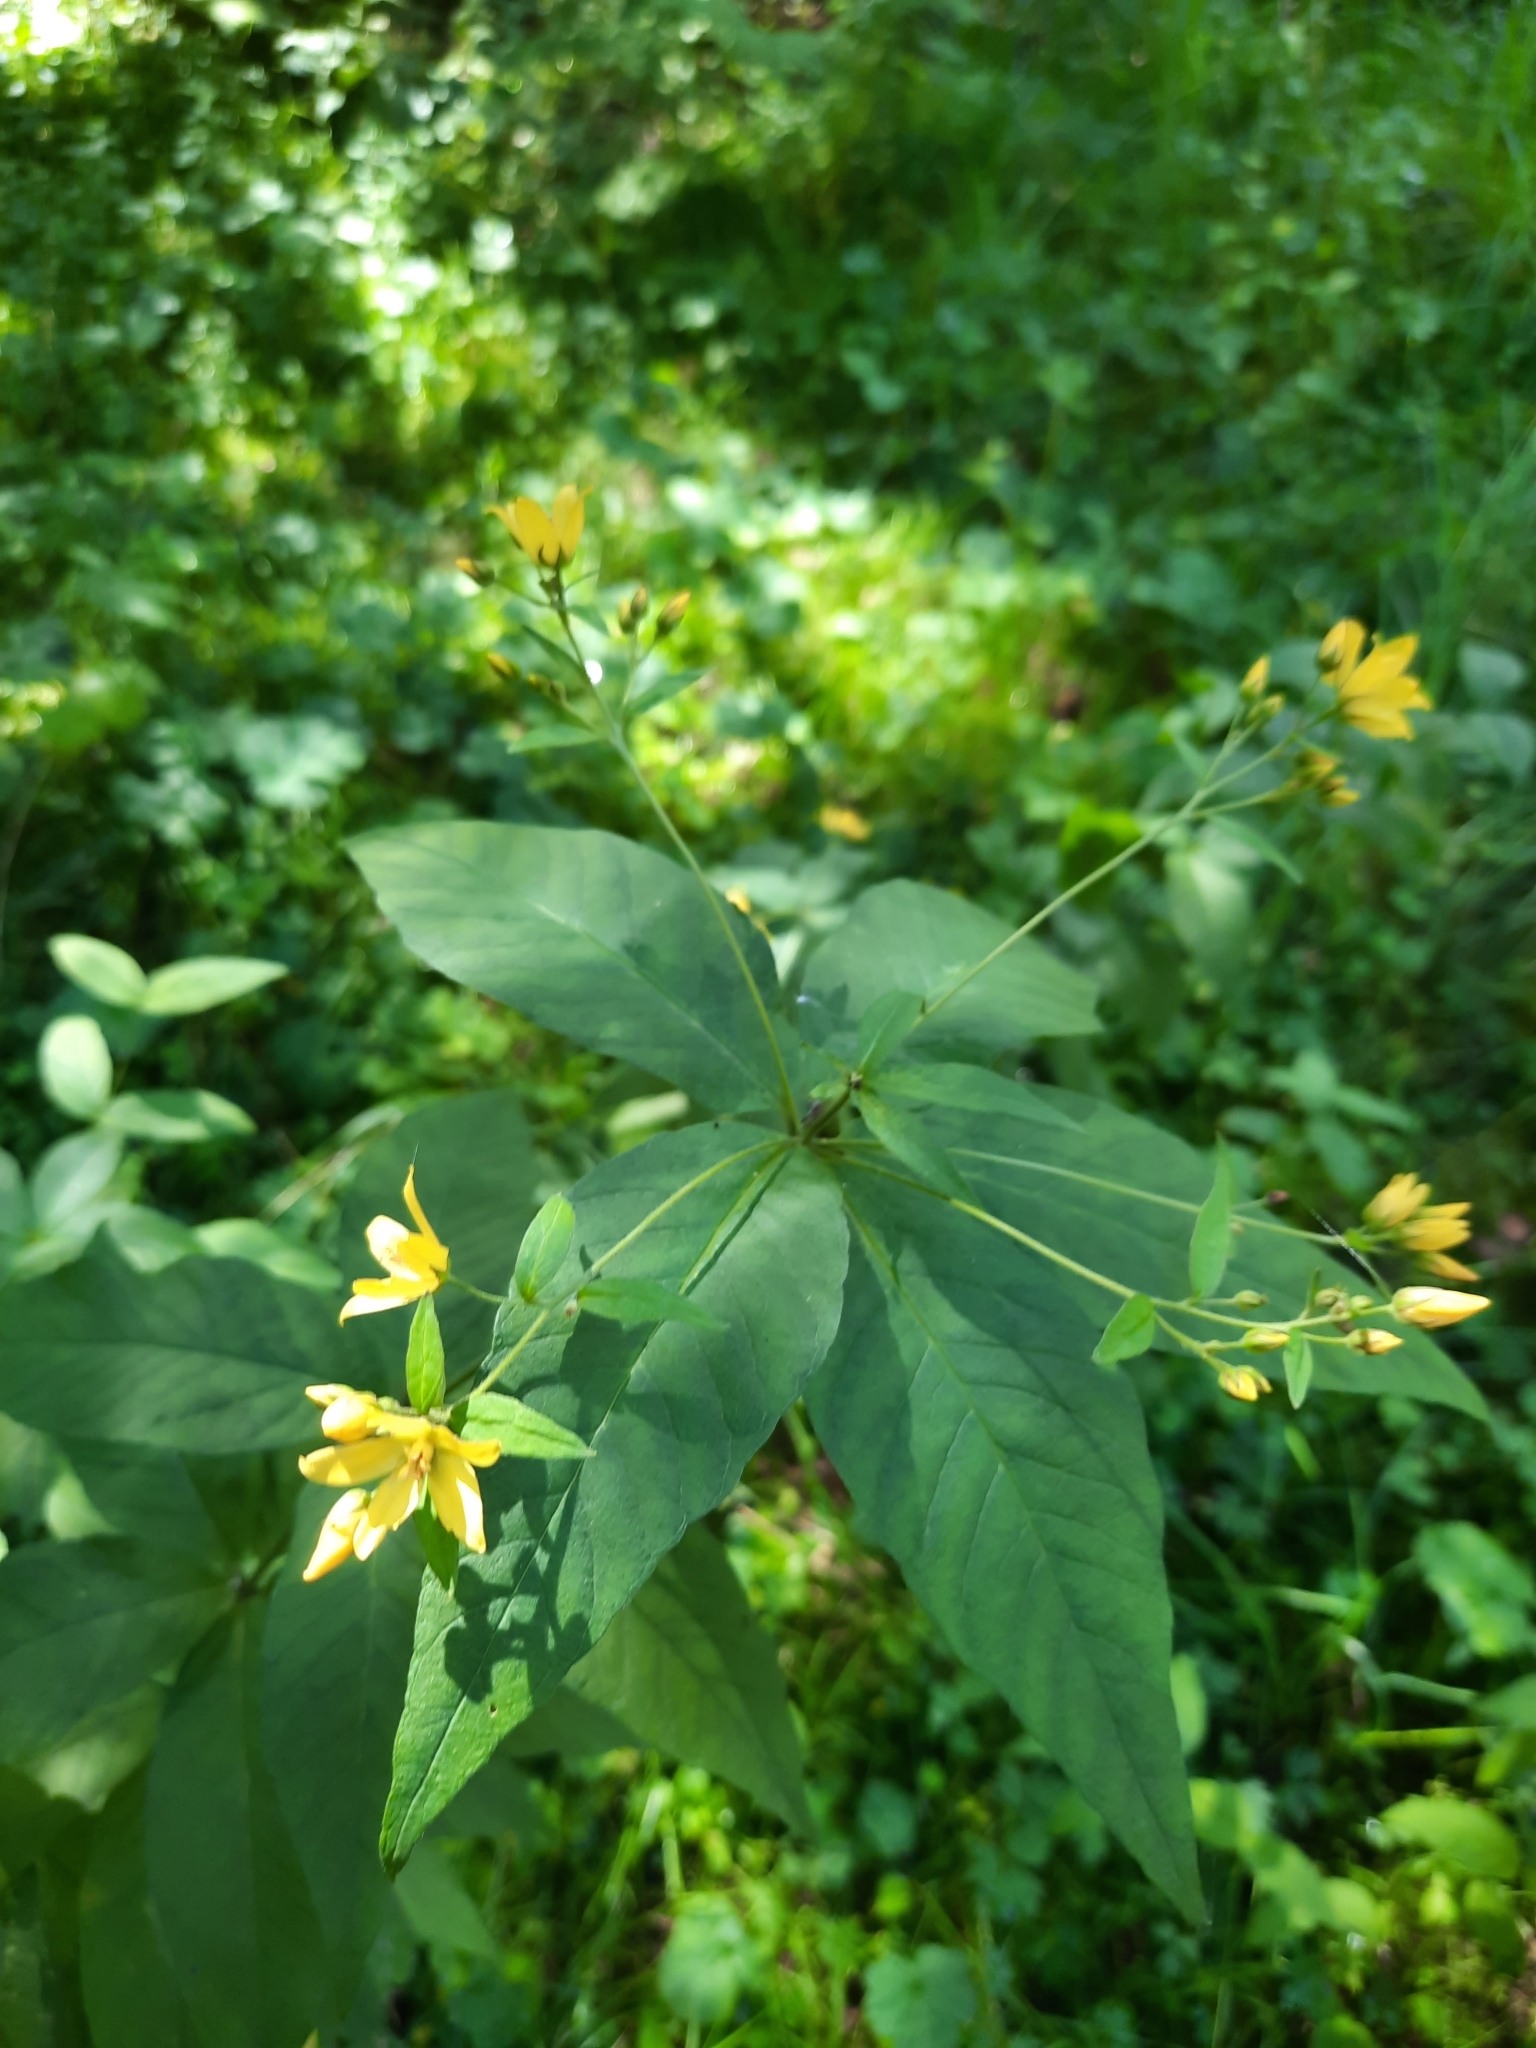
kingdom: Plantae
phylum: Tracheophyta
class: Magnoliopsida
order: Ericales
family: Primulaceae
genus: Lysimachia
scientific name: Lysimachia vulgaris
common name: Yellow loosestrife
